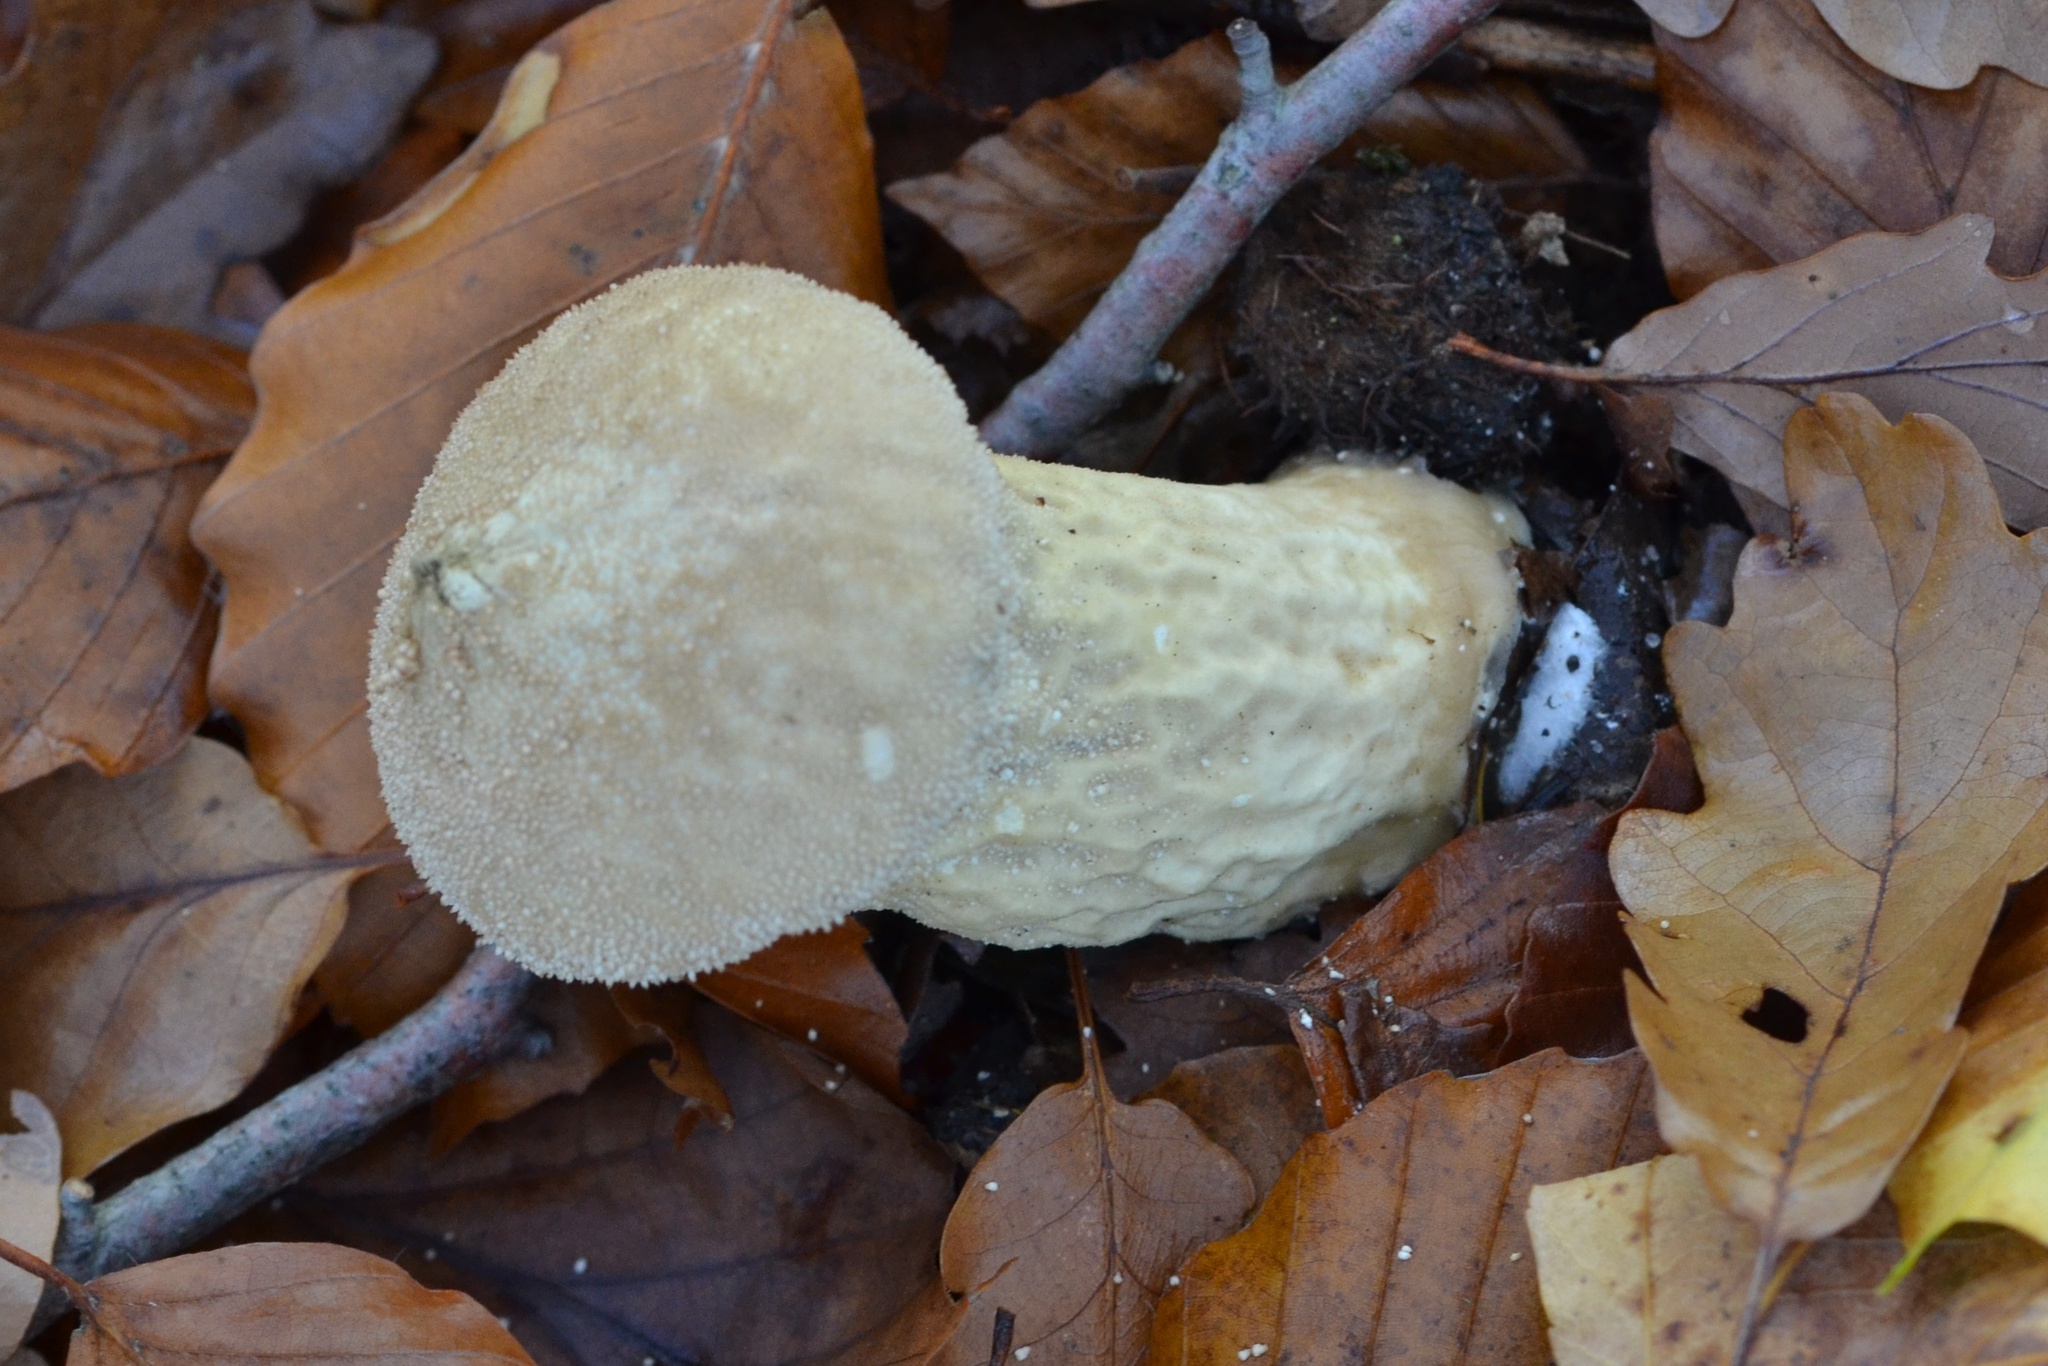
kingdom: Fungi
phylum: Basidiomycota
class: Agaricomycetes
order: Agaricales
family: Lycoperdaceae
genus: Lycoperdon
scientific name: Lycoperdon excipuliforme
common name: Pestle puffball
